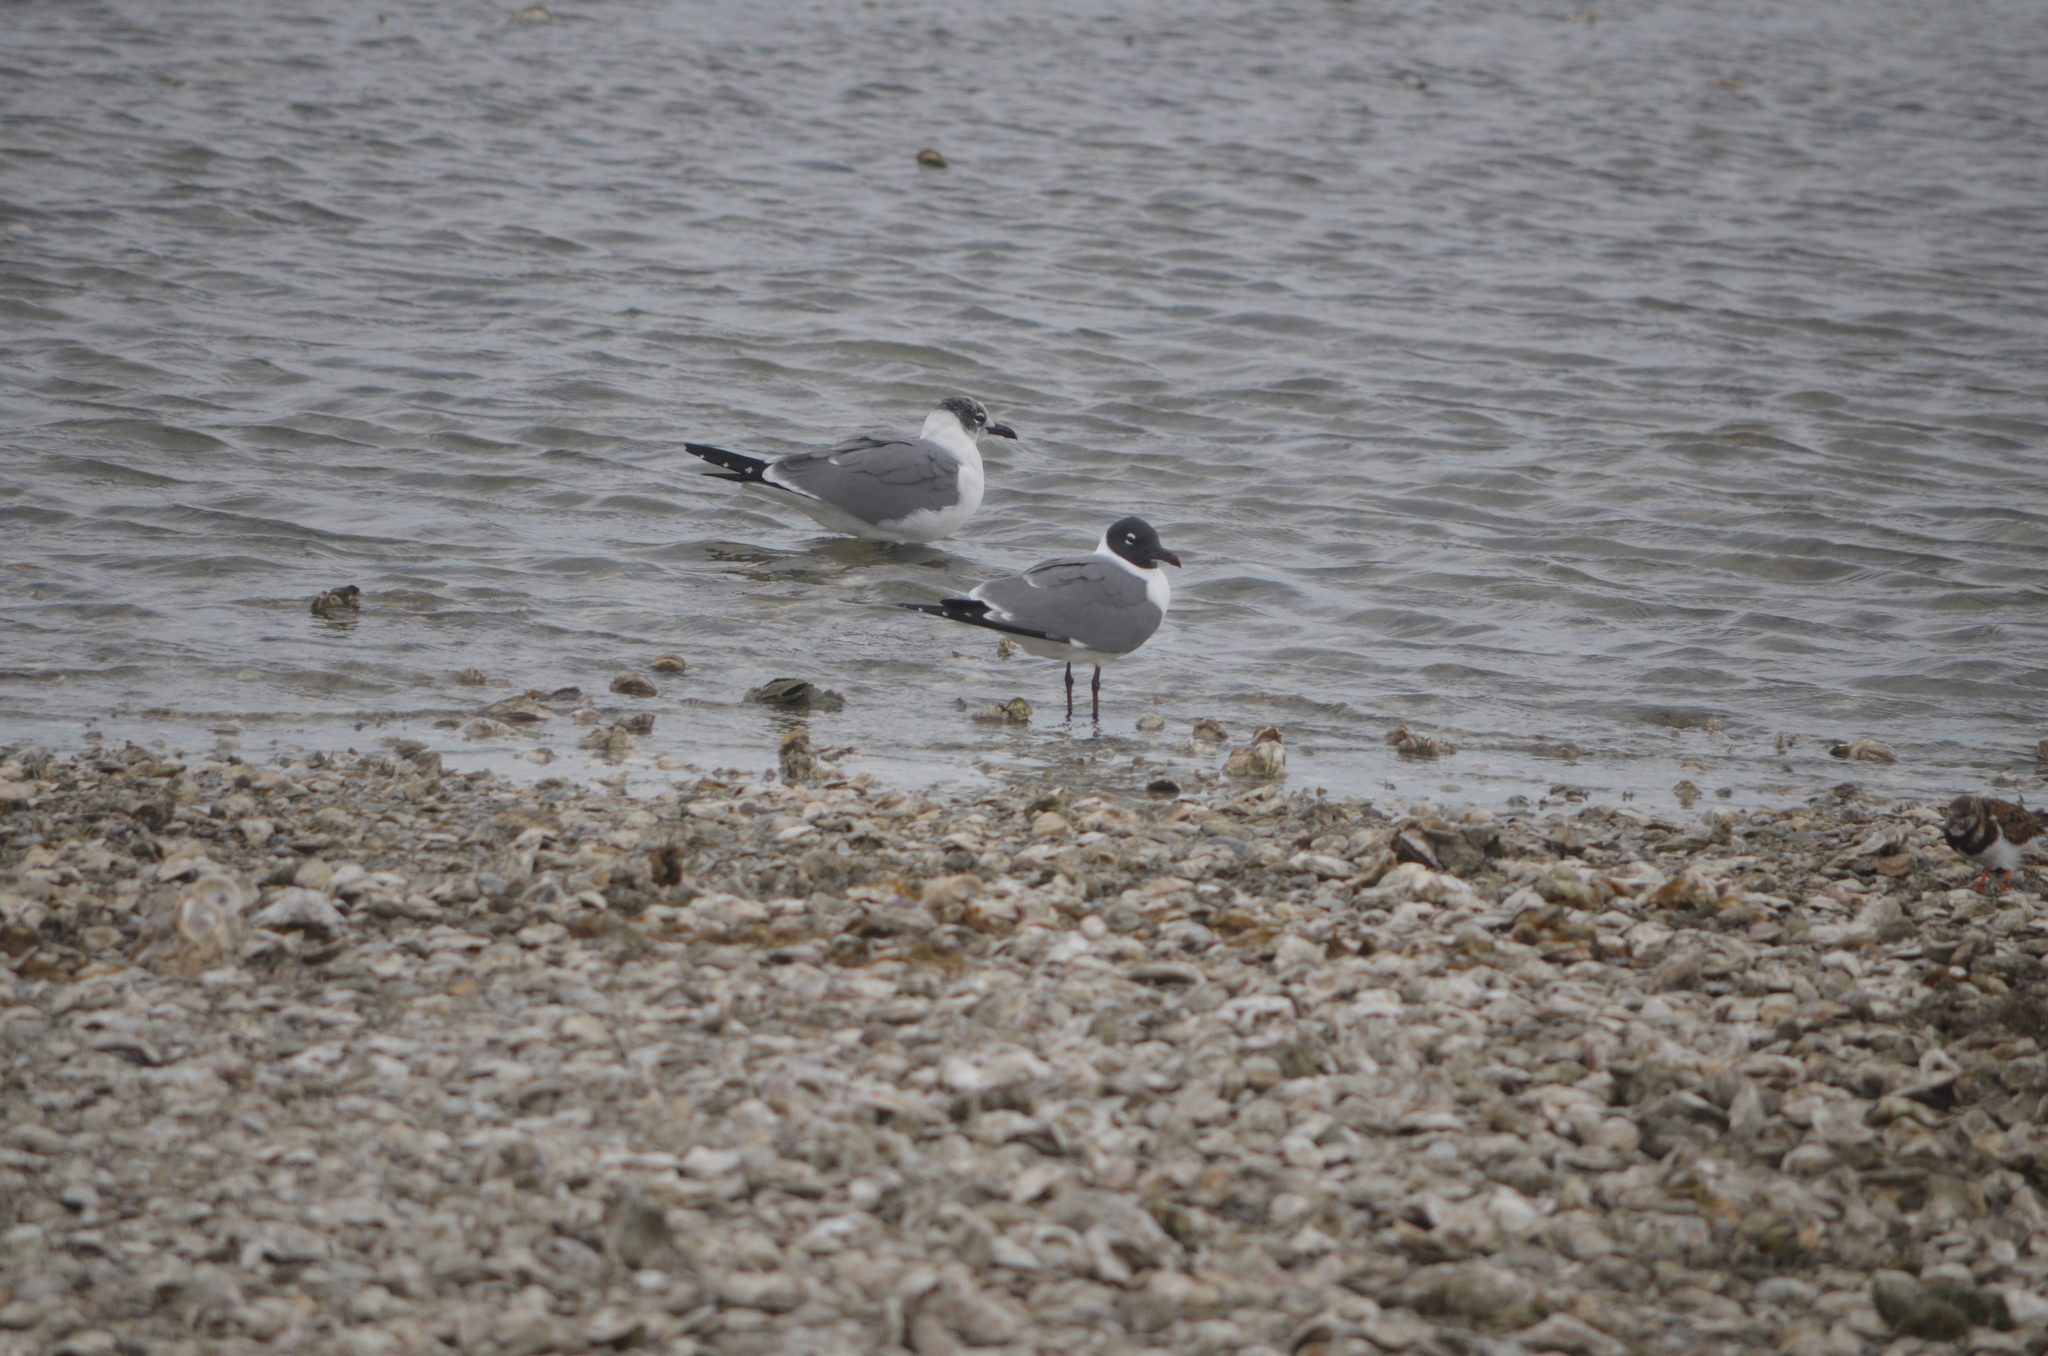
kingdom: Animalia
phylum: Chordata
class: Aves
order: Charadriiformes
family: Laridae
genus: Leucophaeus
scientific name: Leucophaeus atricilla
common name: Laughing gull
